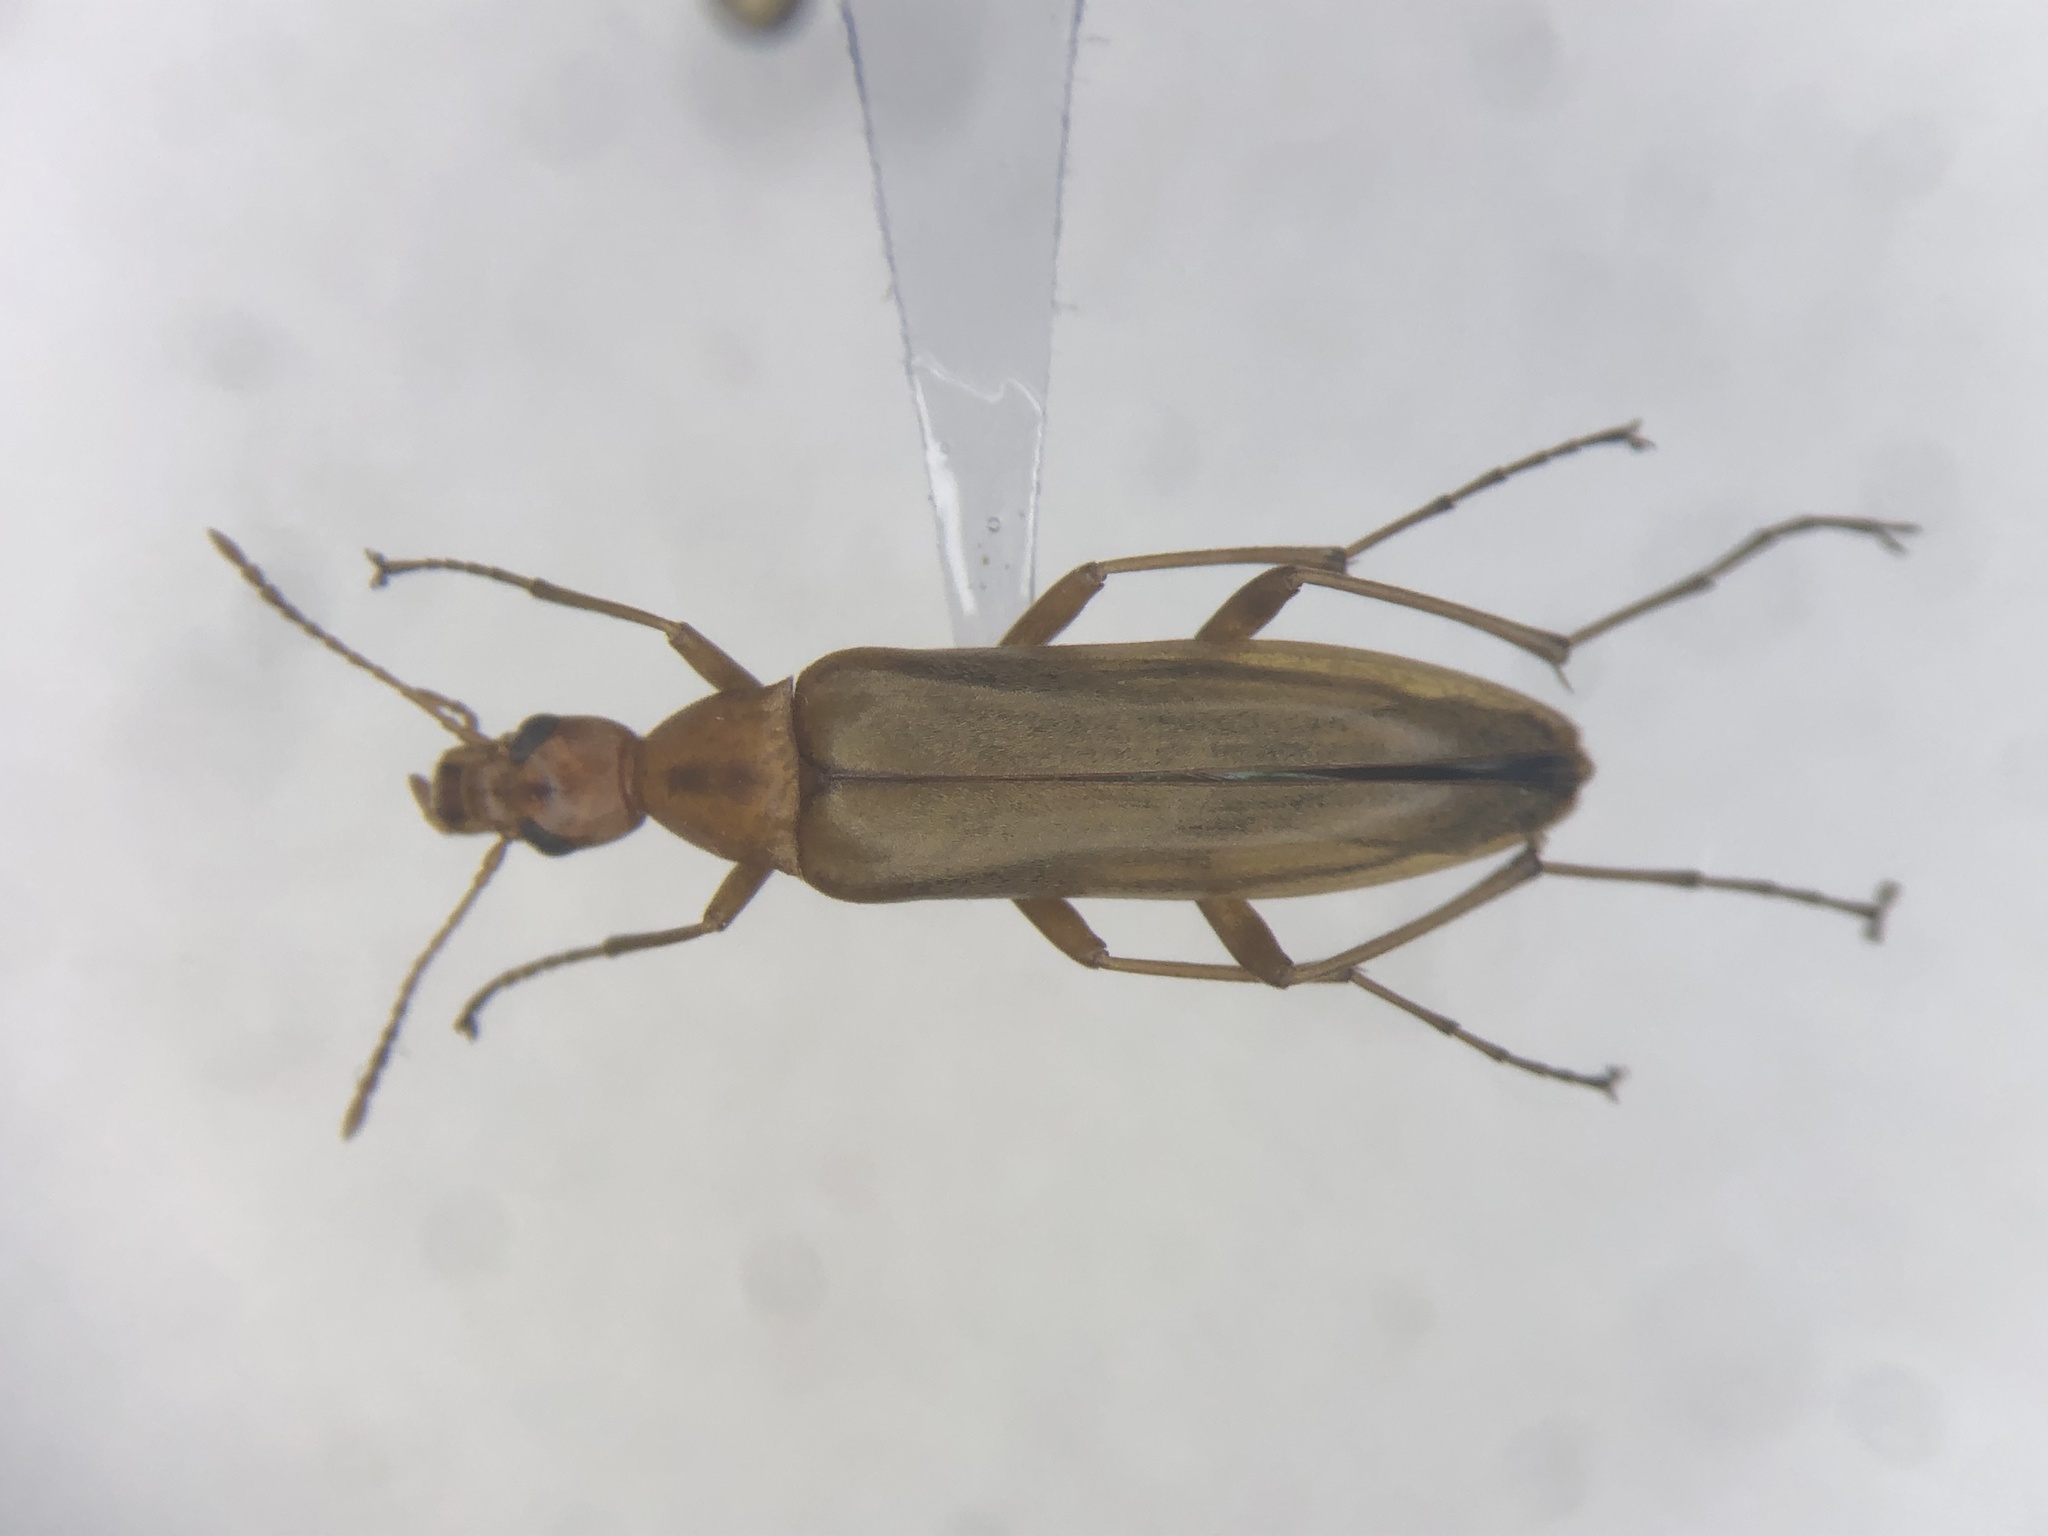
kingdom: Animalia
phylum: Arthropoda
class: Insecta
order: Coleoptera
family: Stenotrachelidae
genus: Cephaloon
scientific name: Cephaloon lepturides
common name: False leptura beetle
